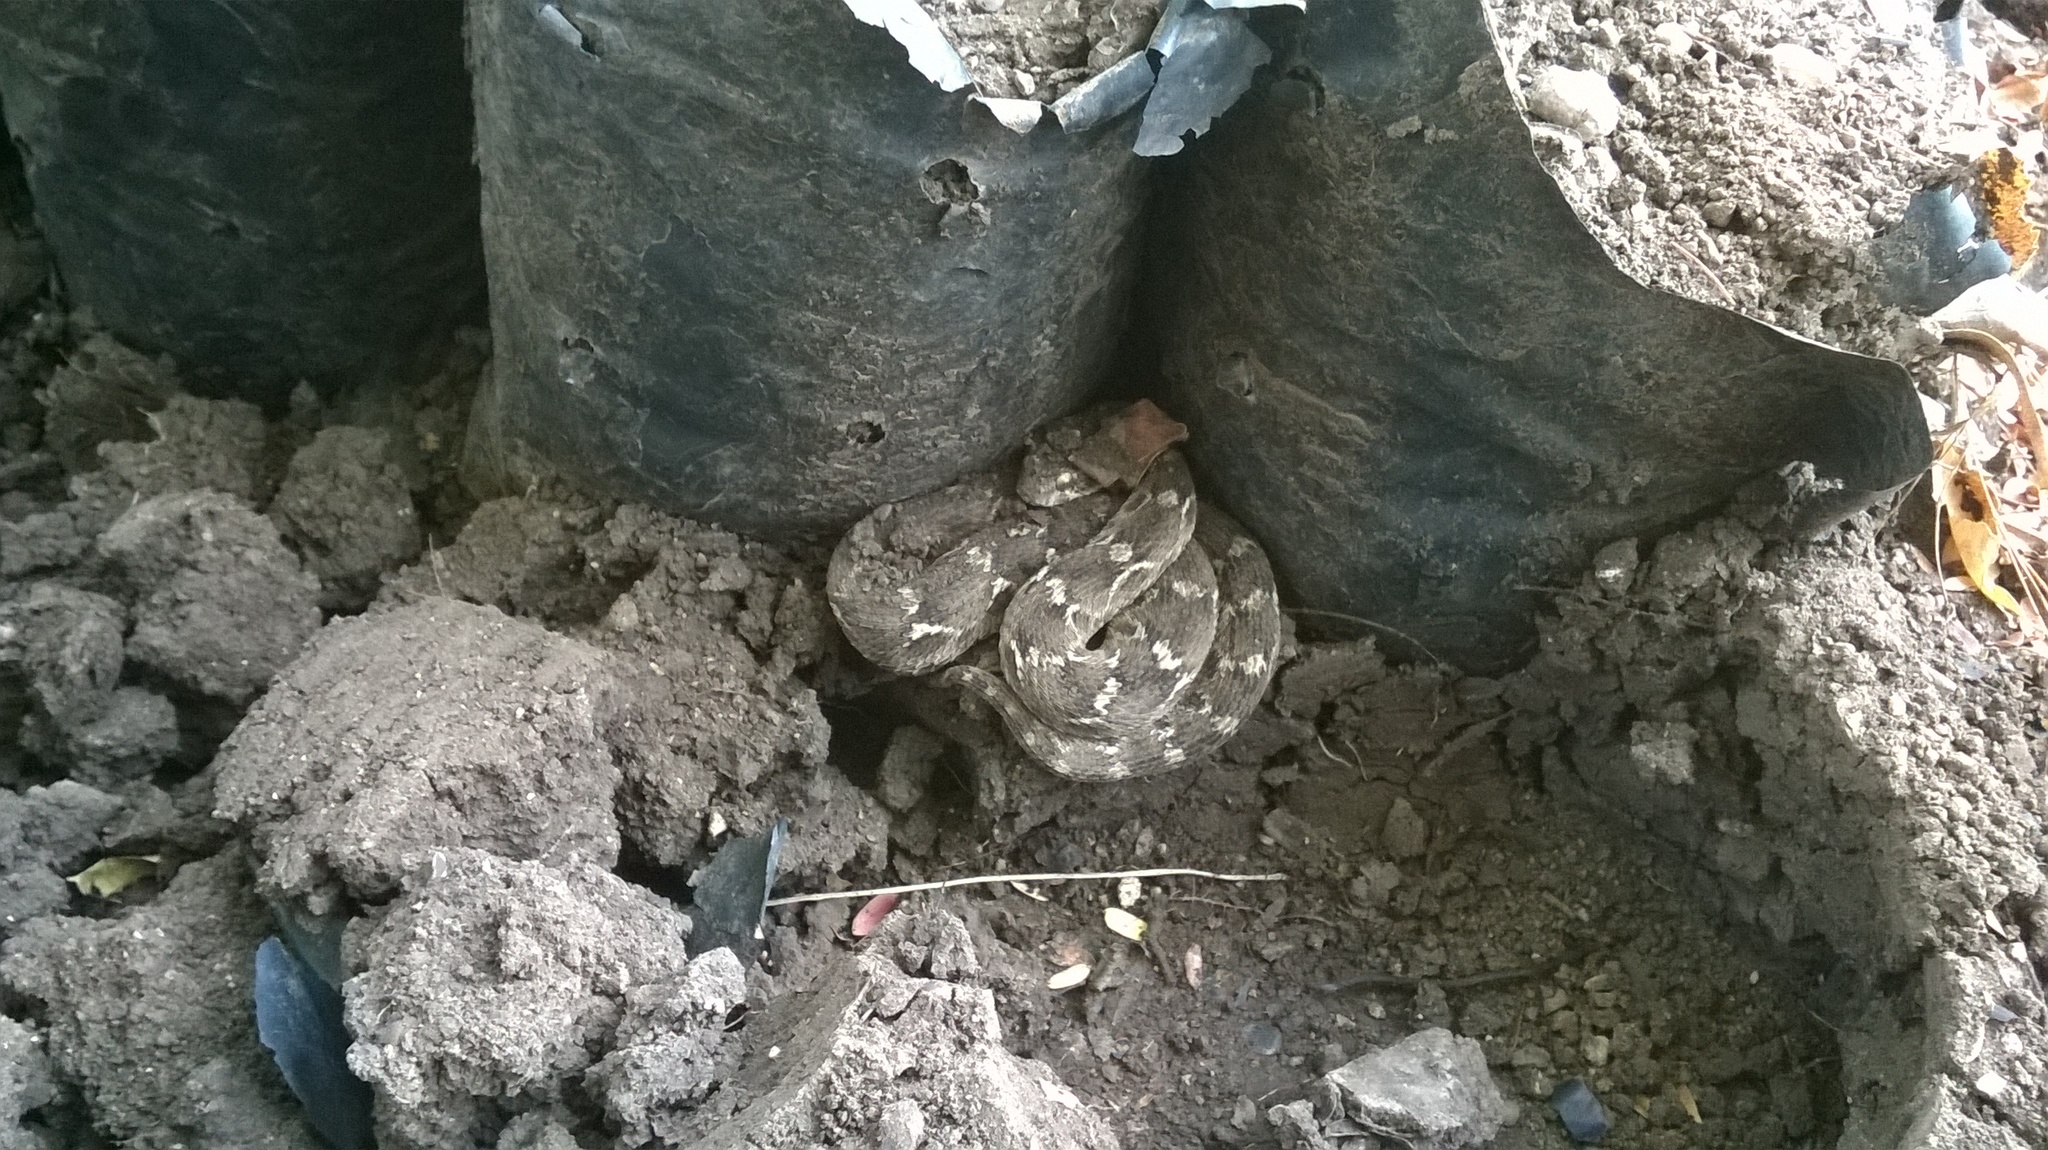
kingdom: Animalia
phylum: Chordata
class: Squamata
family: Viperidae
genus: Echis
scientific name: Echis carinatus
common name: Saw-scaled viper
